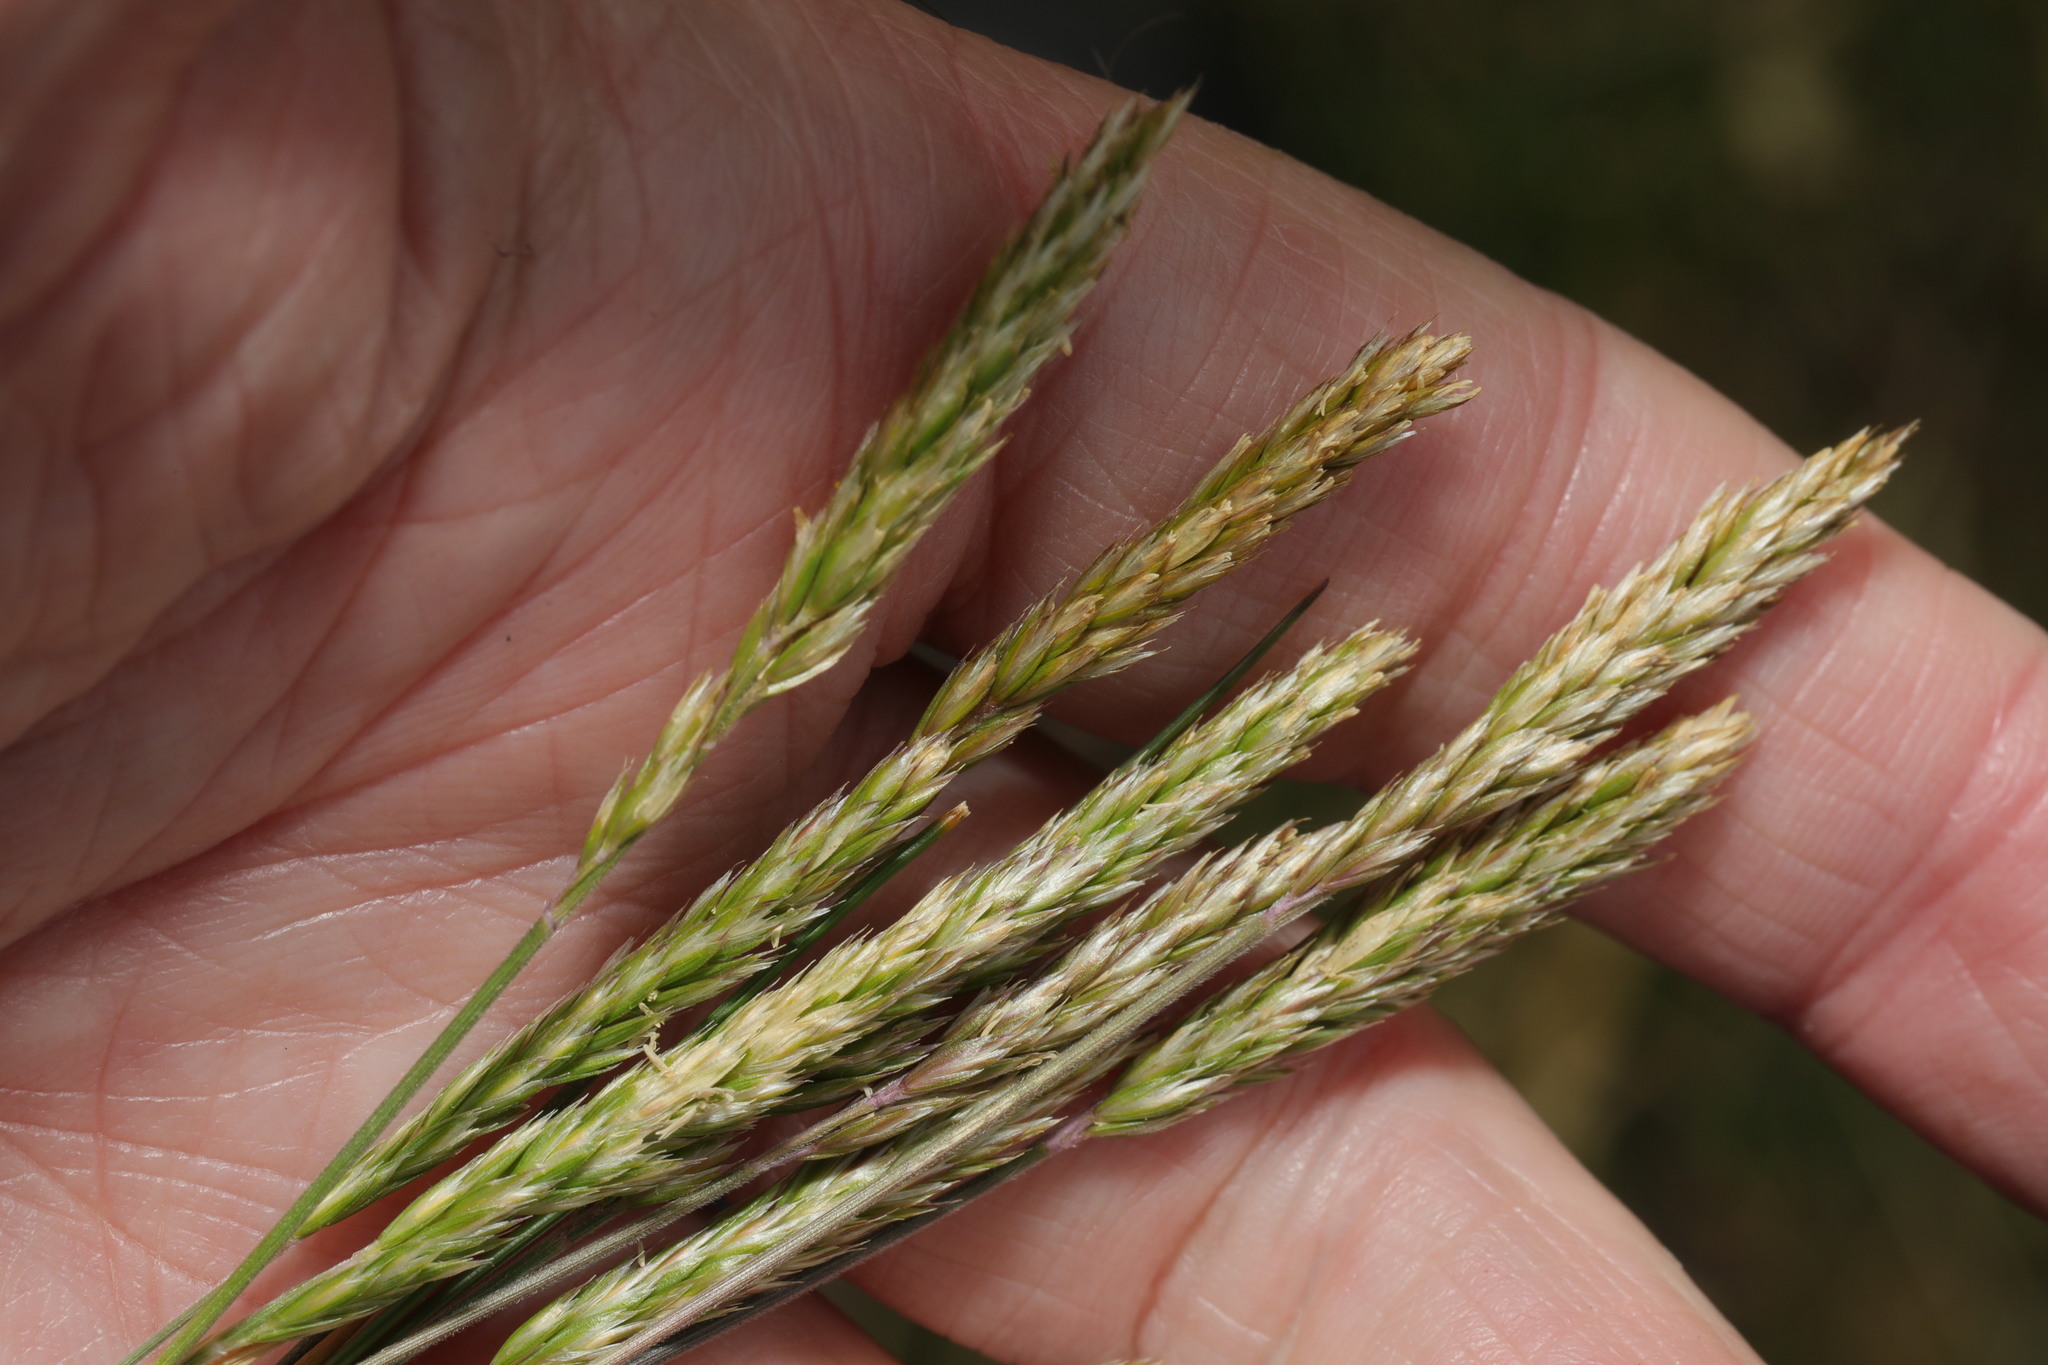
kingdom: Plantae
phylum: Tracheophyta
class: Liliopsida
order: Poales
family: Poaceae
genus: Koeleria
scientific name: Koeleria macrantha
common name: Crested hair-grass
